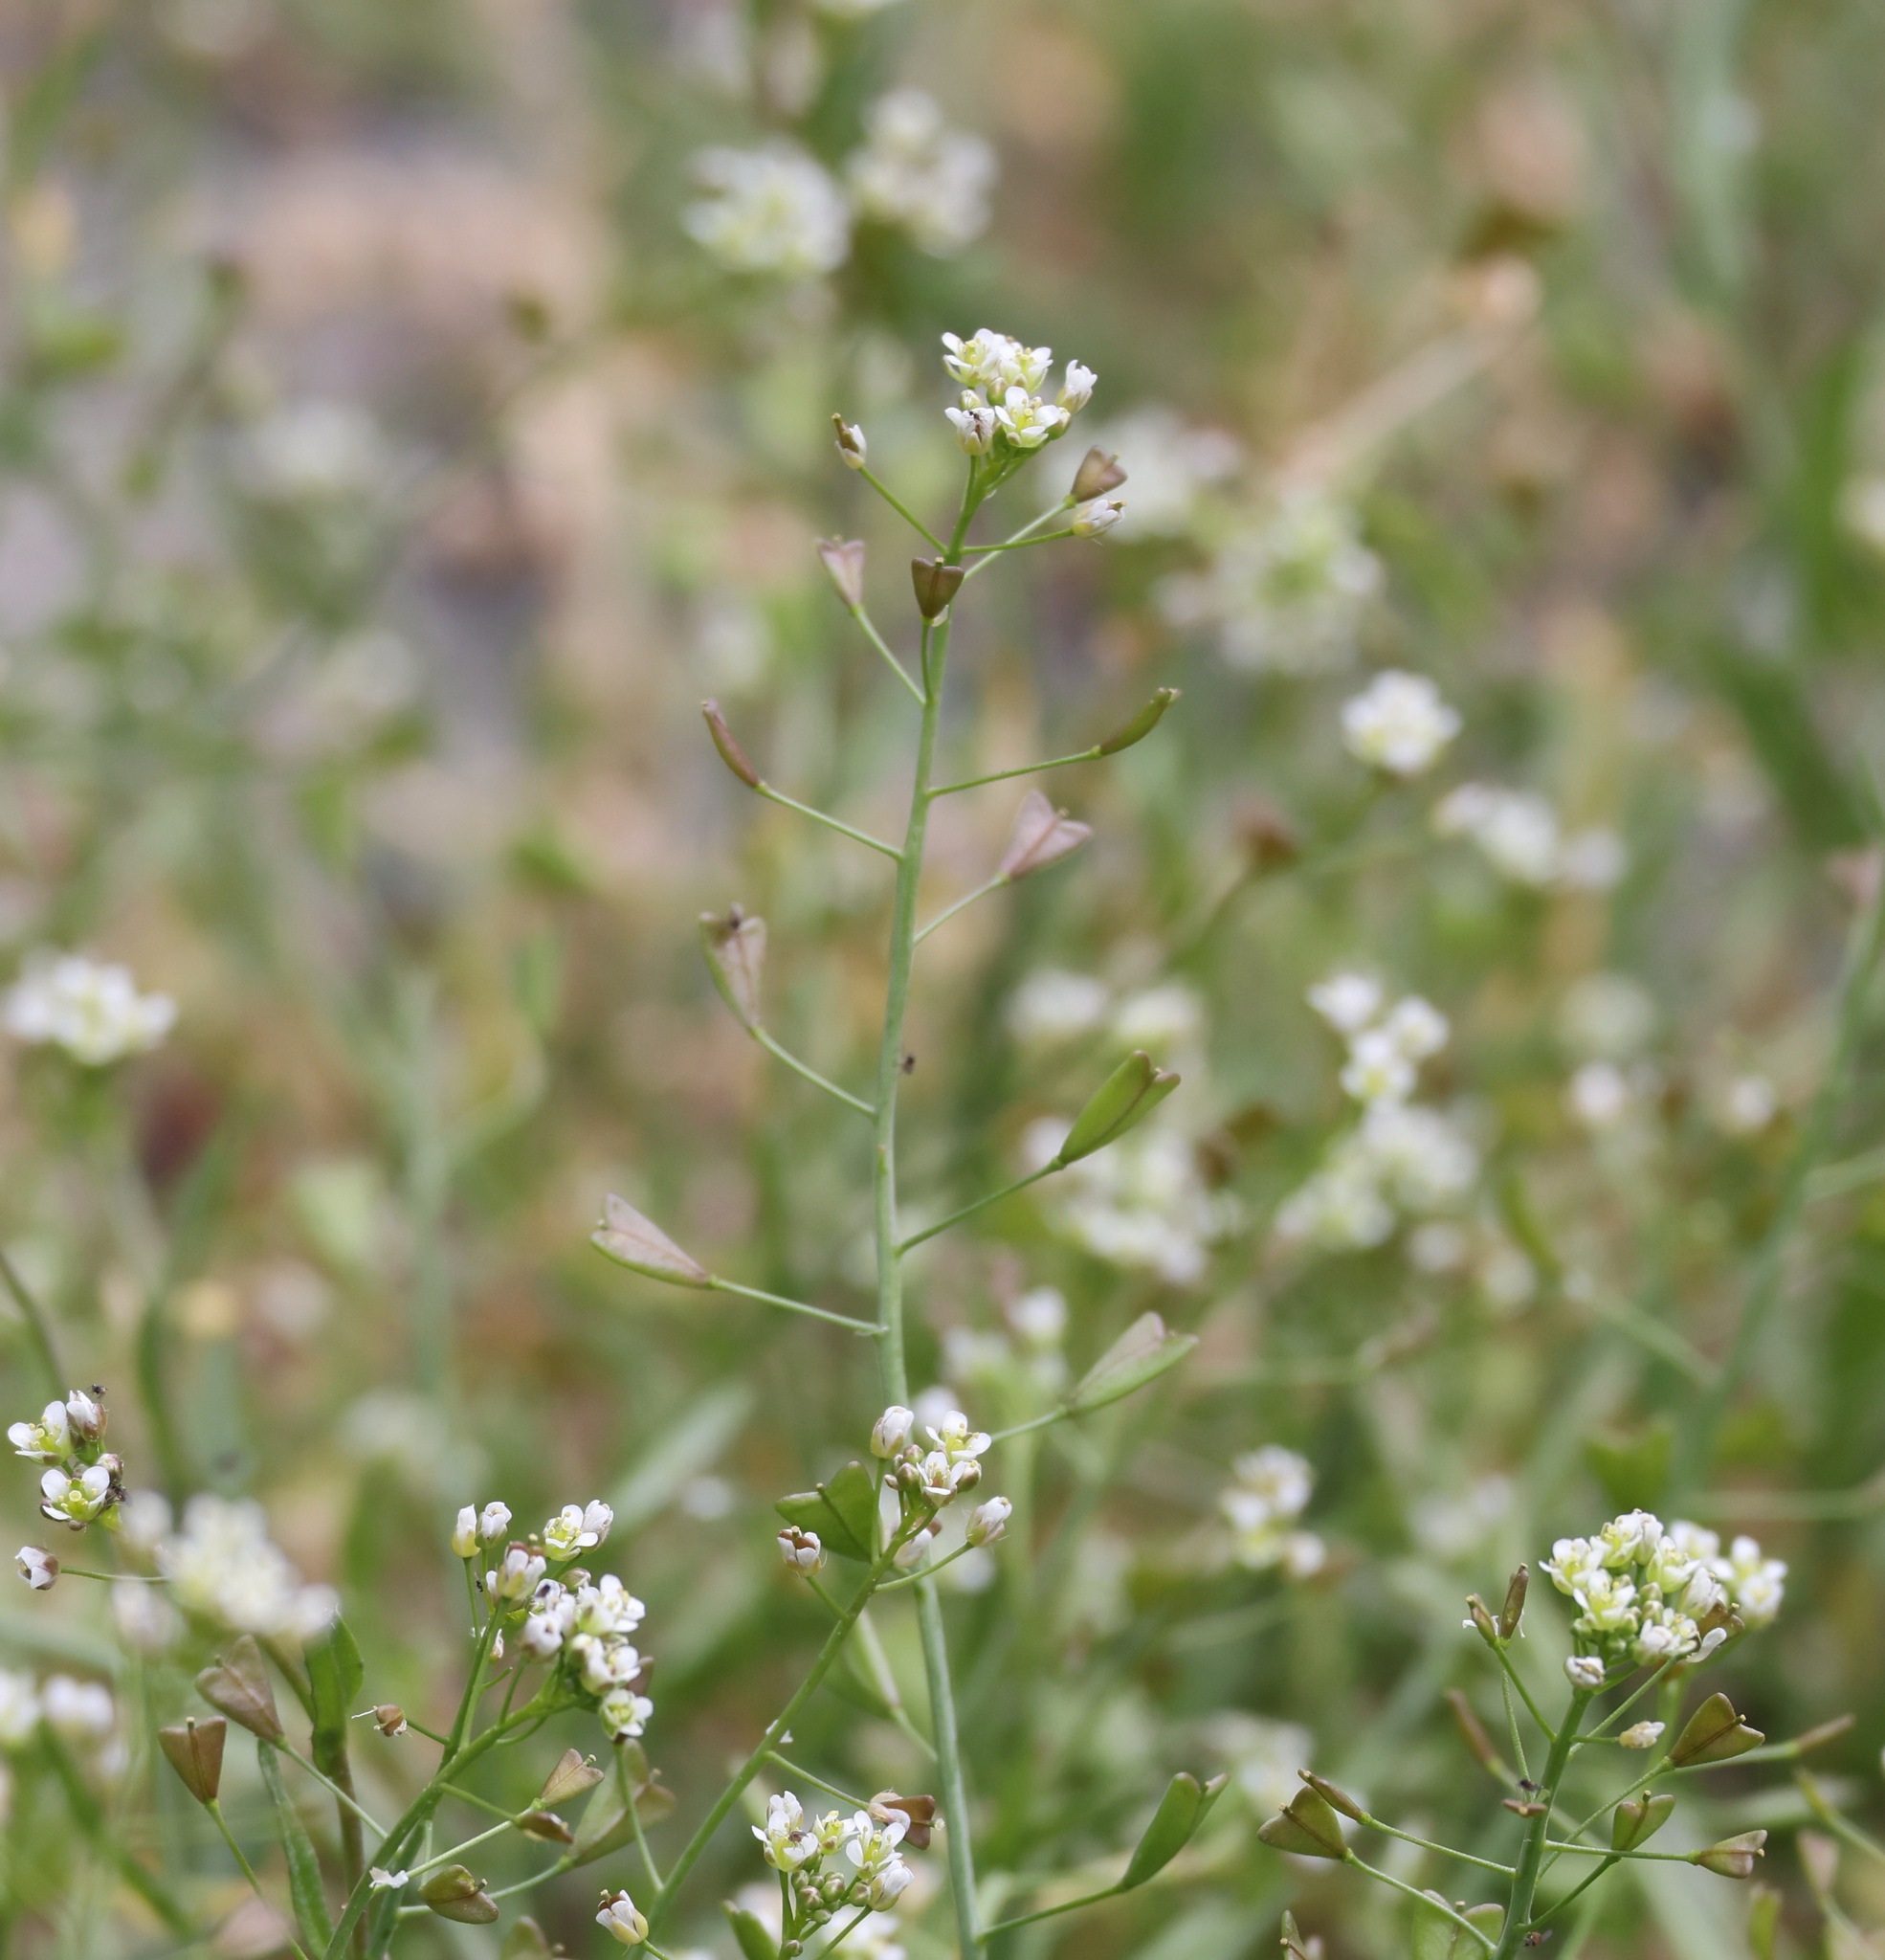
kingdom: Plantae
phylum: Tracheophyta
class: Magnoliopsida
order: Brassicales
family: Brassicaceae
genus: Capsella
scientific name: Capsella bursa-pastoris
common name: Shepherd's purse
